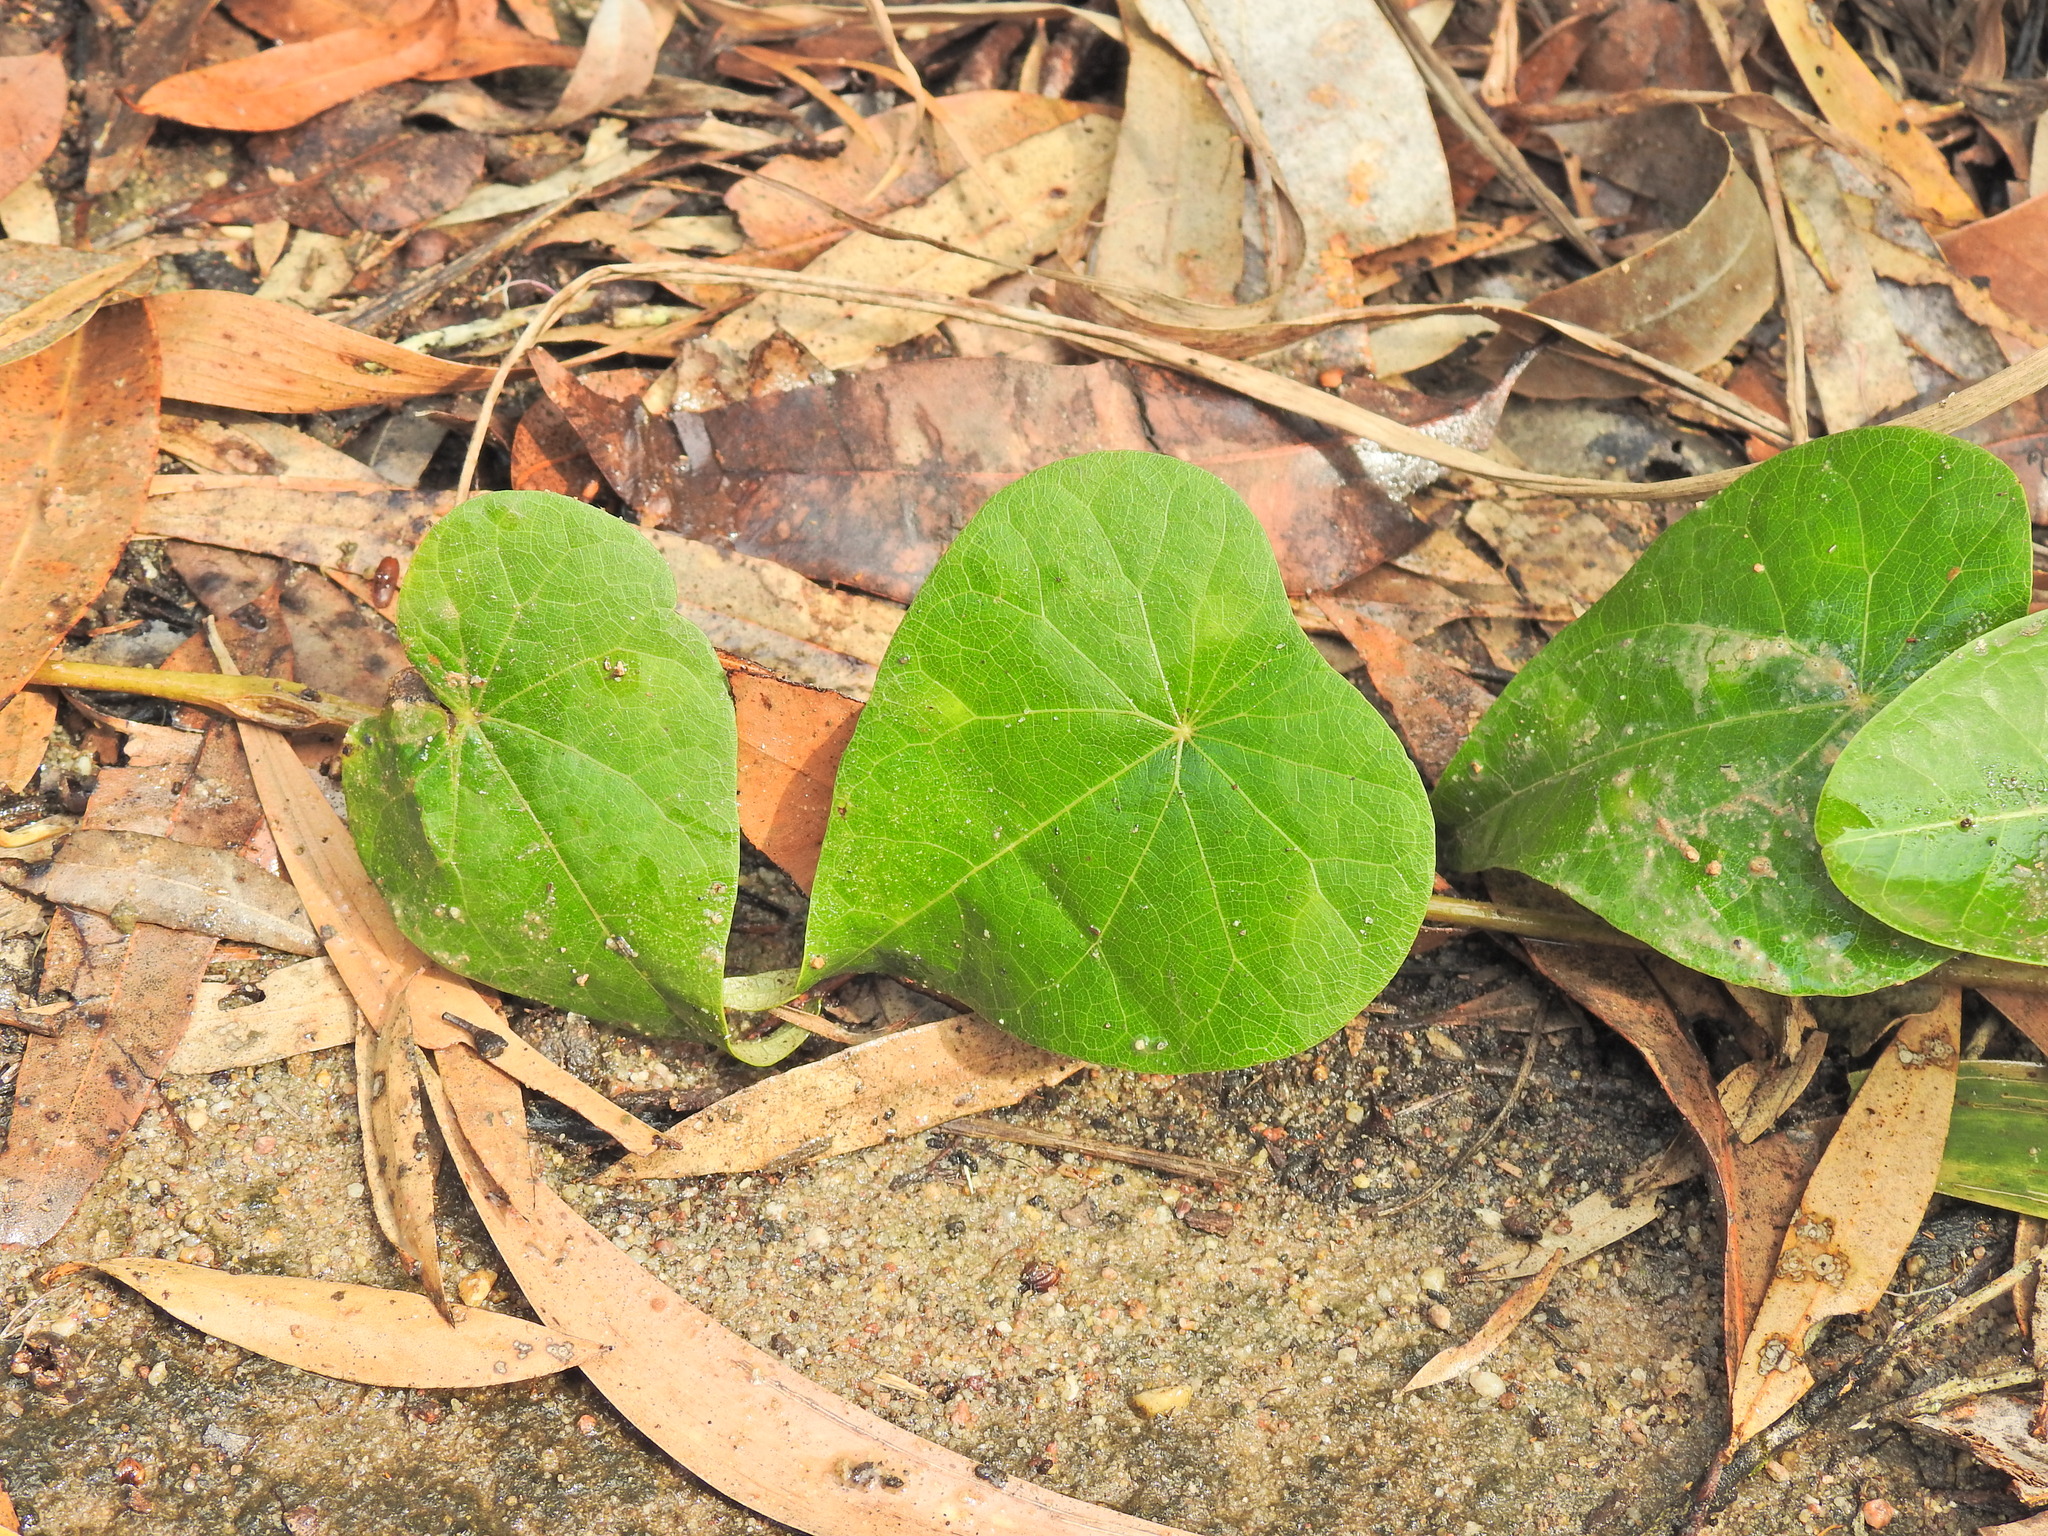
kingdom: Plantae
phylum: Tracheophyta
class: Magnoliopsida
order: Ranunculales
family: Menispermaceae
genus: Stephania
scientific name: Stephania japonica
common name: Snake vine
